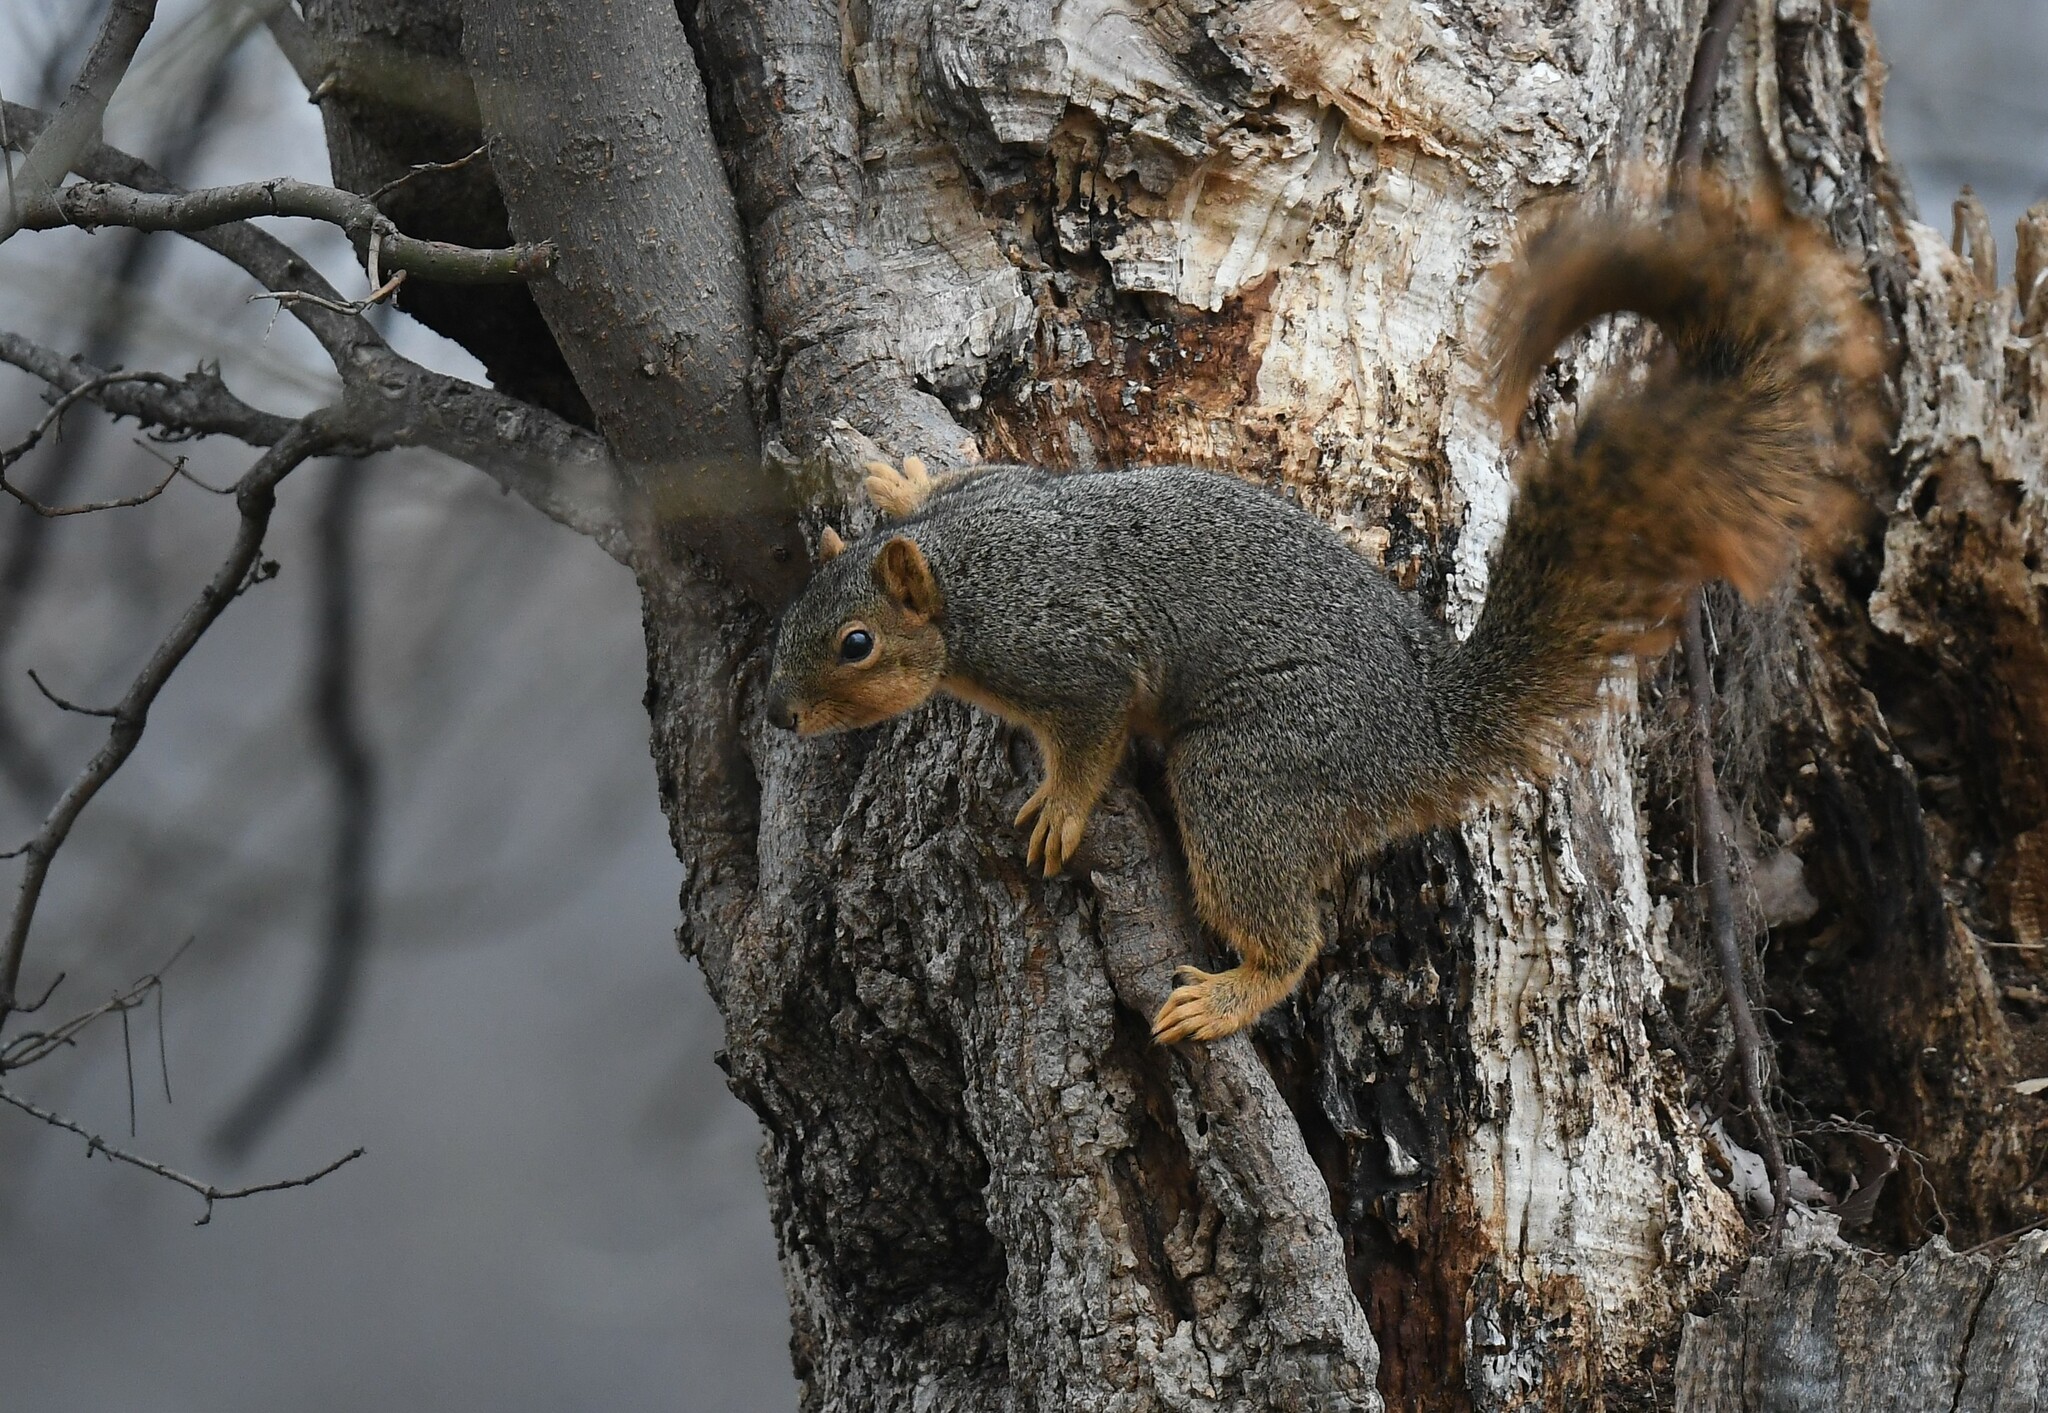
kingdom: Animalia
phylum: Chordata
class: Mammalia
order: Rodentia
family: Sciuridae
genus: Sciurus
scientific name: Sciurus niger
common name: Fox squirrel
